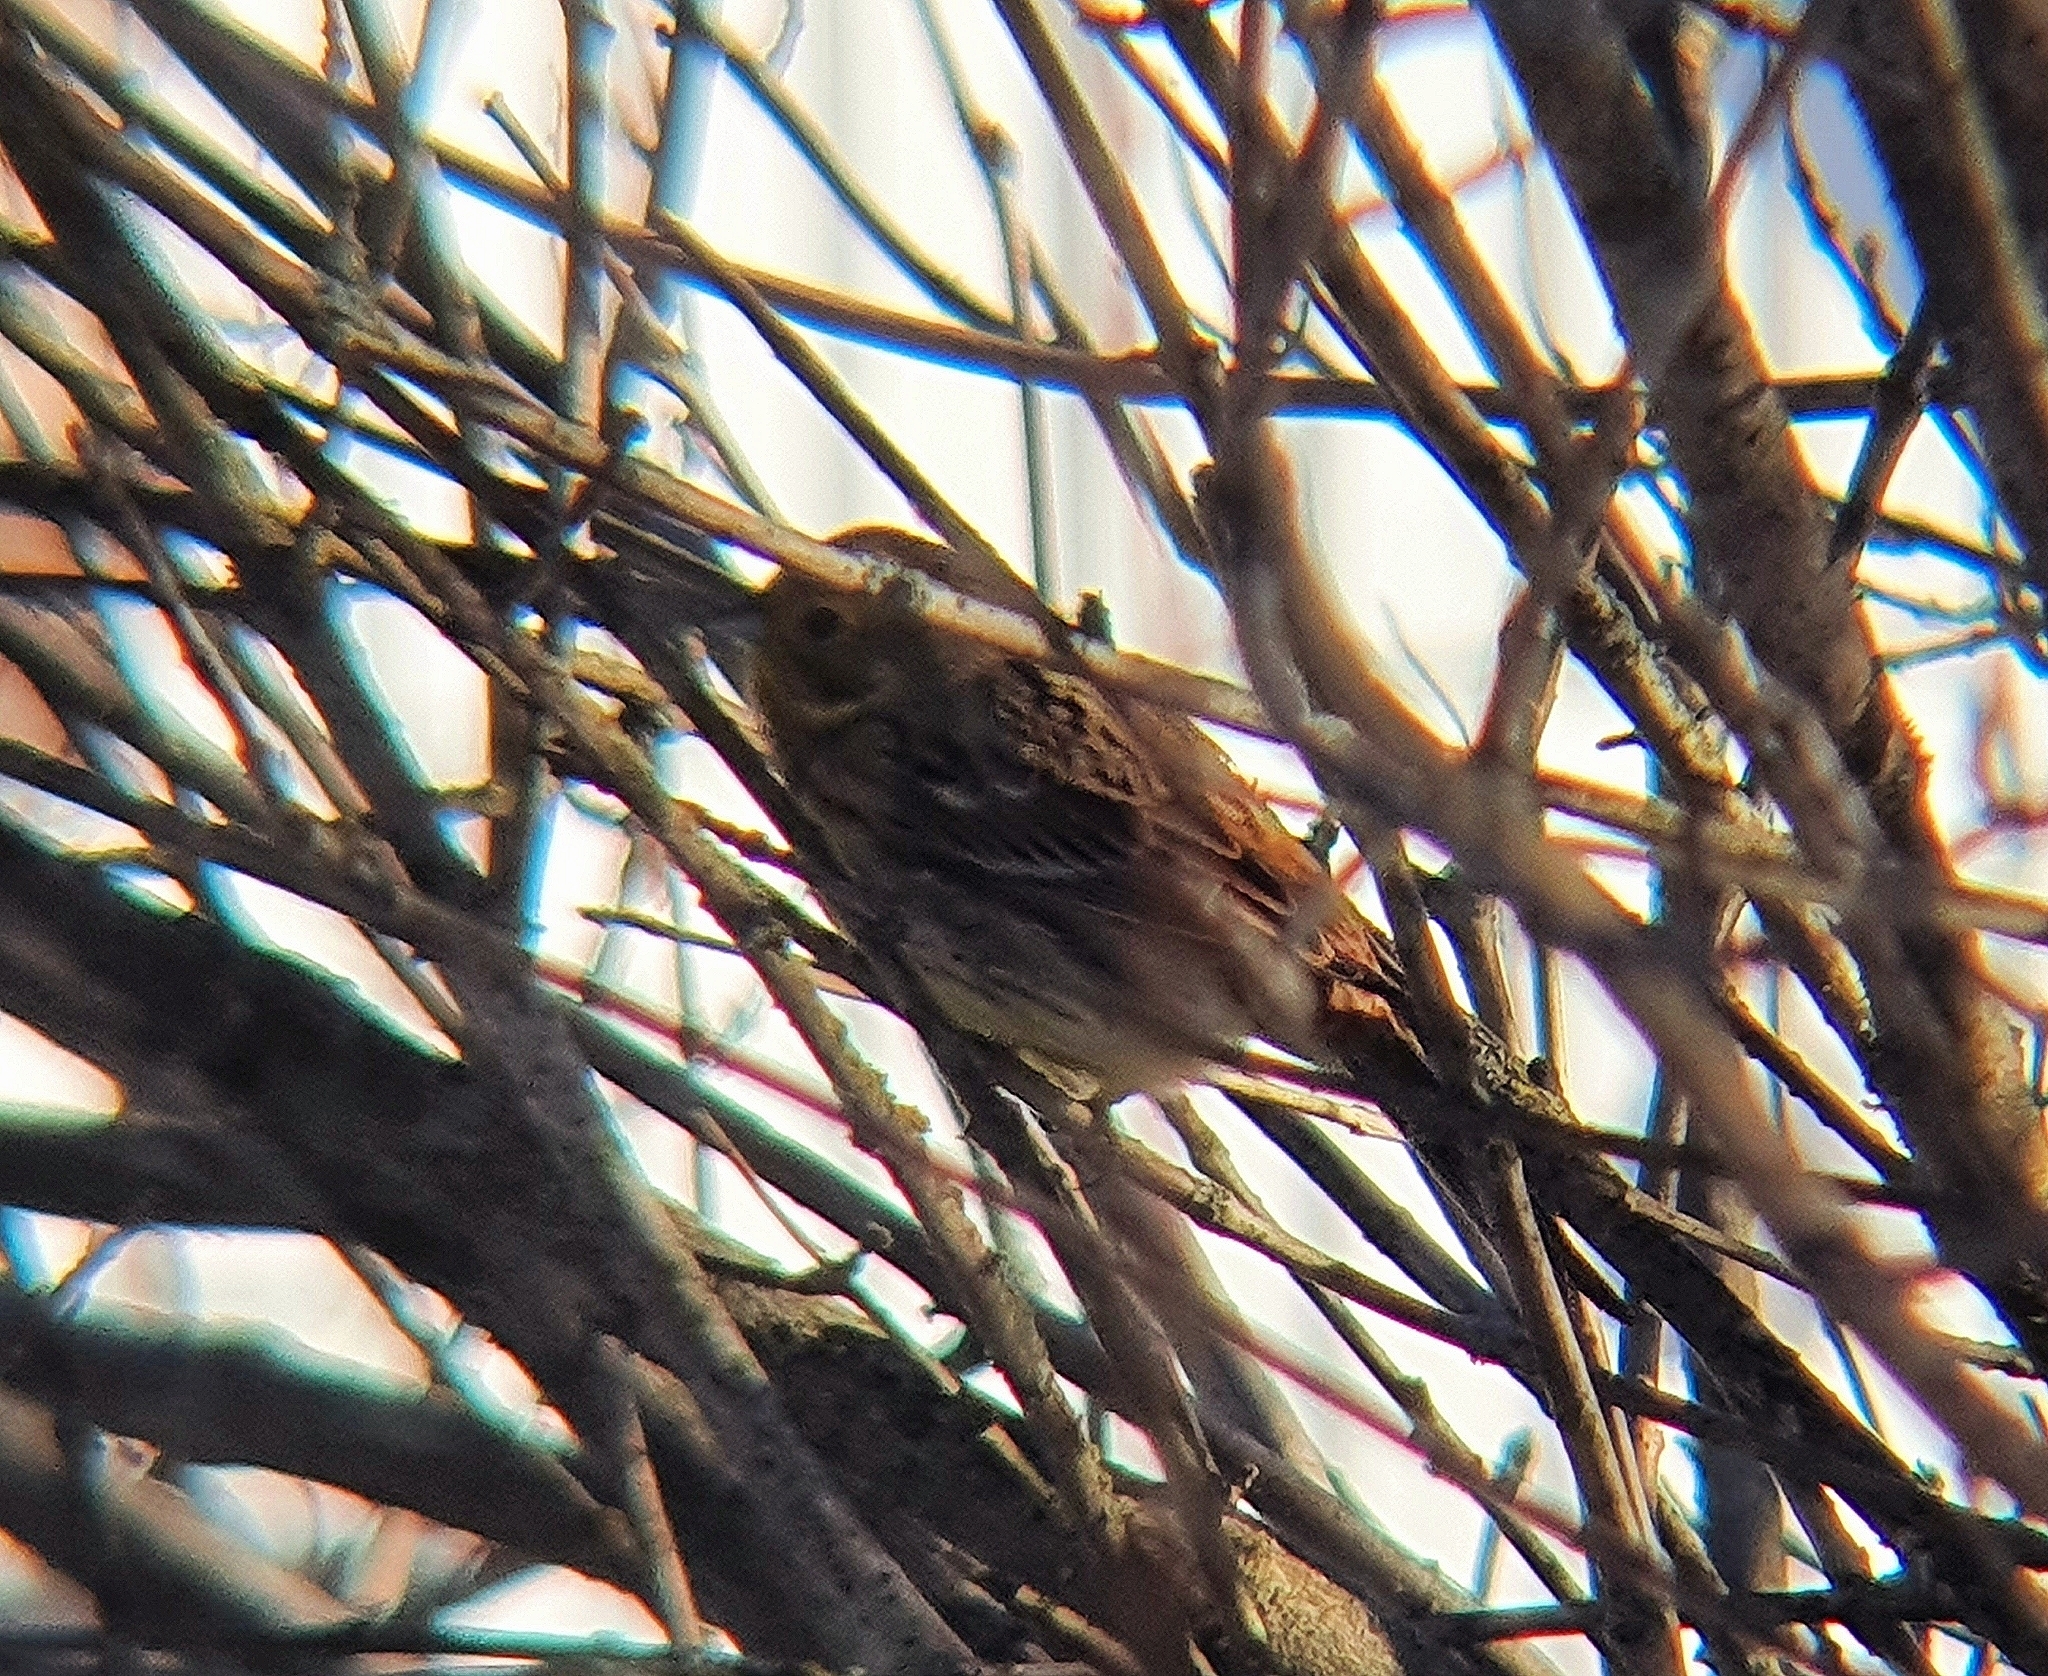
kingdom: Animalia
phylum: Chordata
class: Aves
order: Passeriformes
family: Emberizidae
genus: Emberiza
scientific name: Emberiza schoeniclus
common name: Reed bunting
